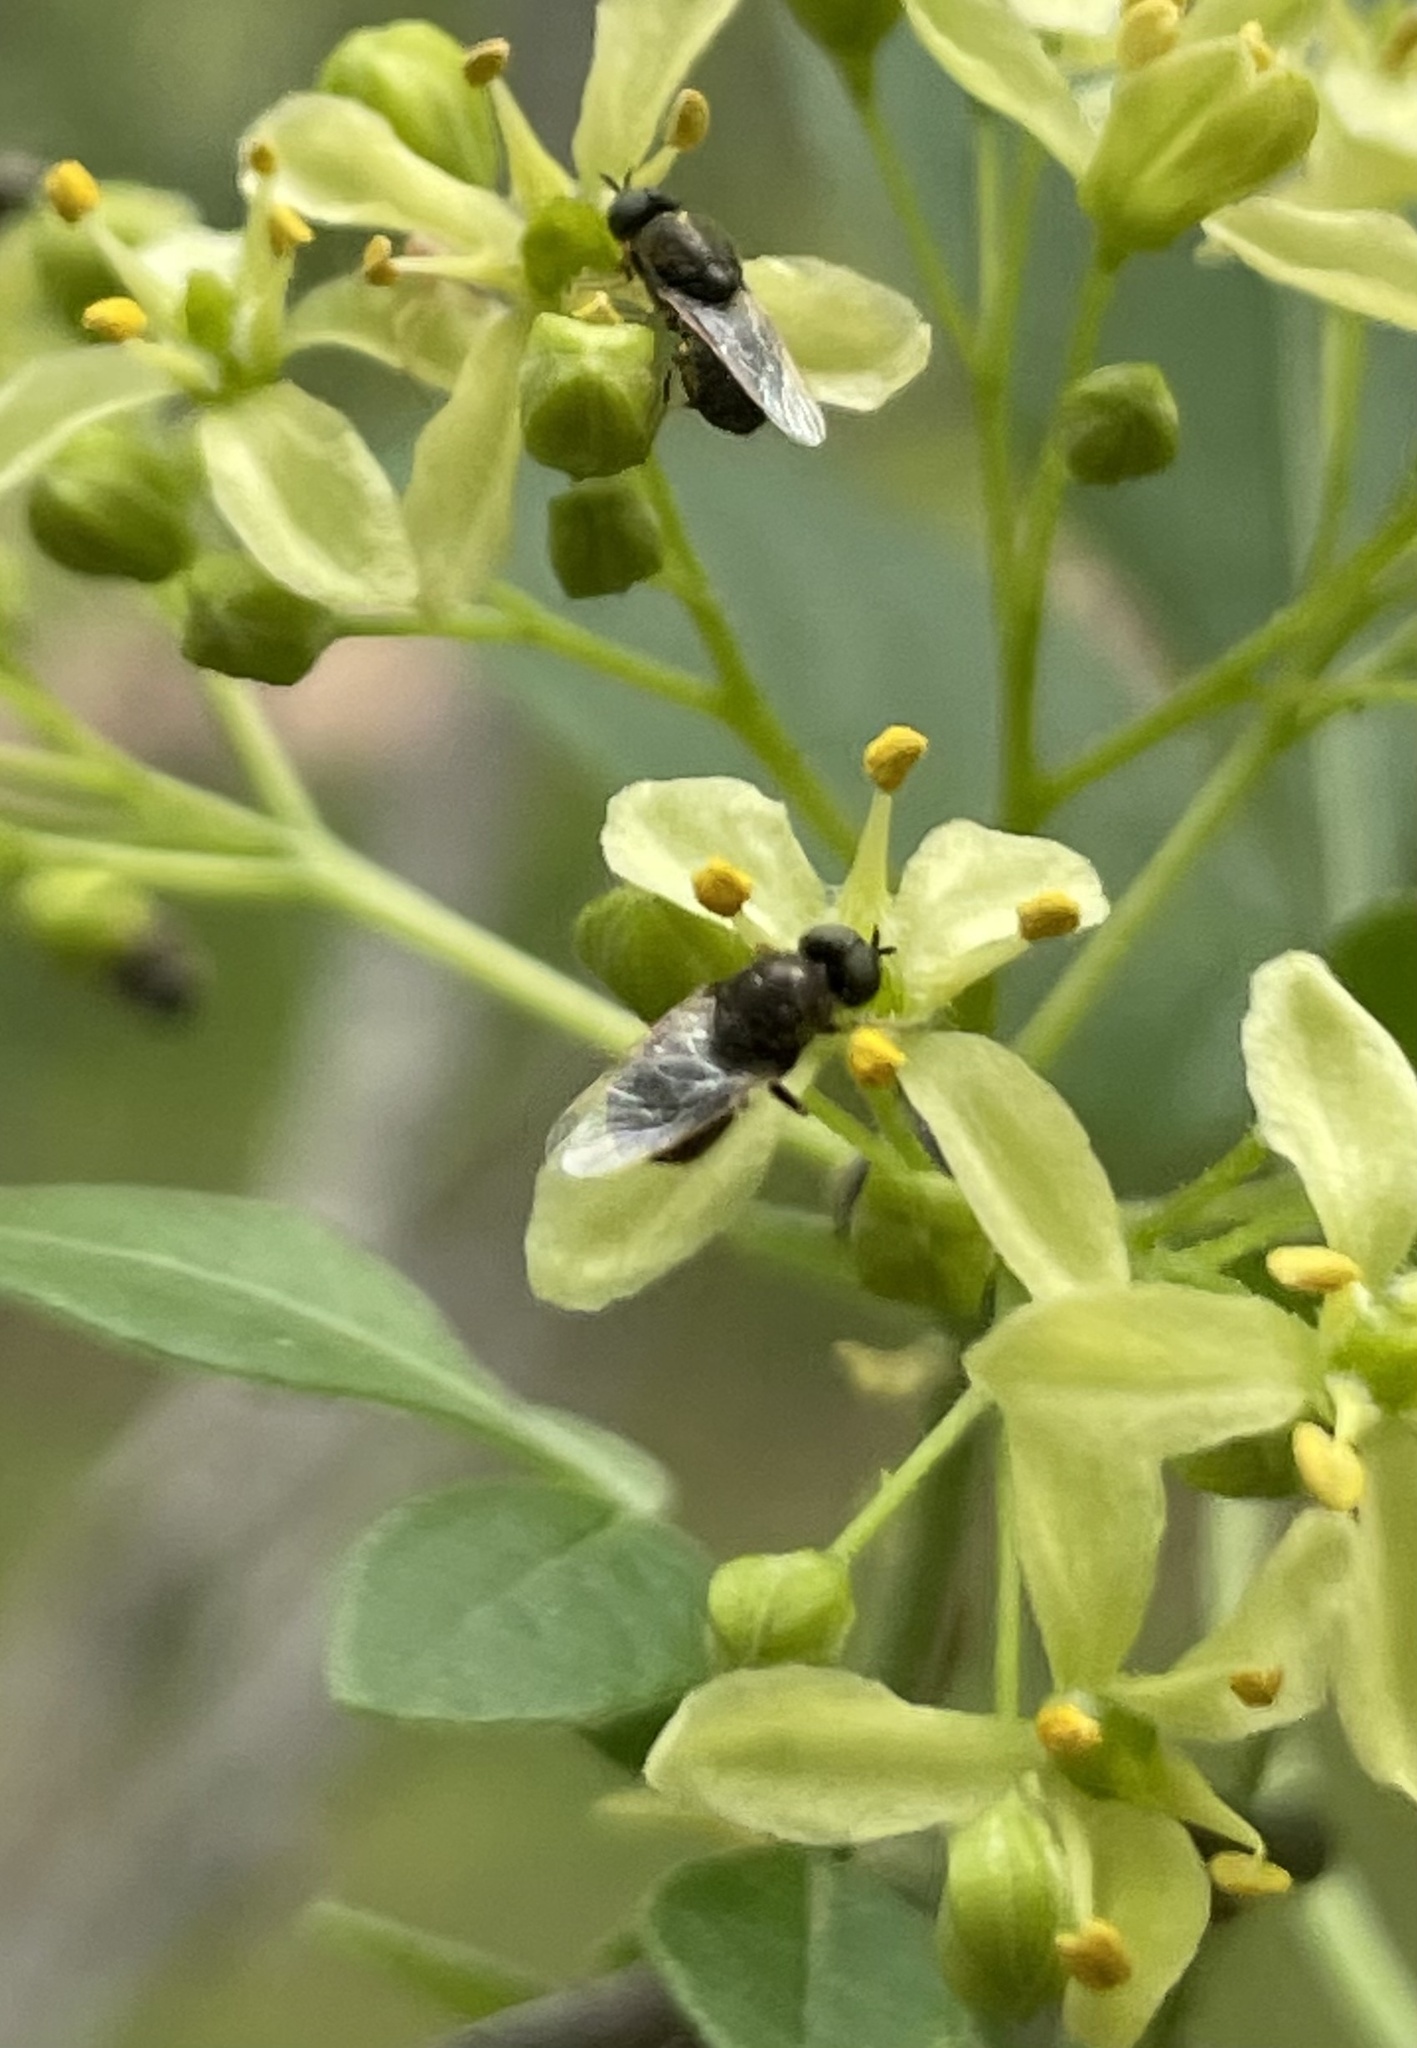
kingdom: Animalia
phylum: Arthropoda
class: Insecta
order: Diptera
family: Stratiomyidae
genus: Nemotelus
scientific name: Nemotelus bruesii
